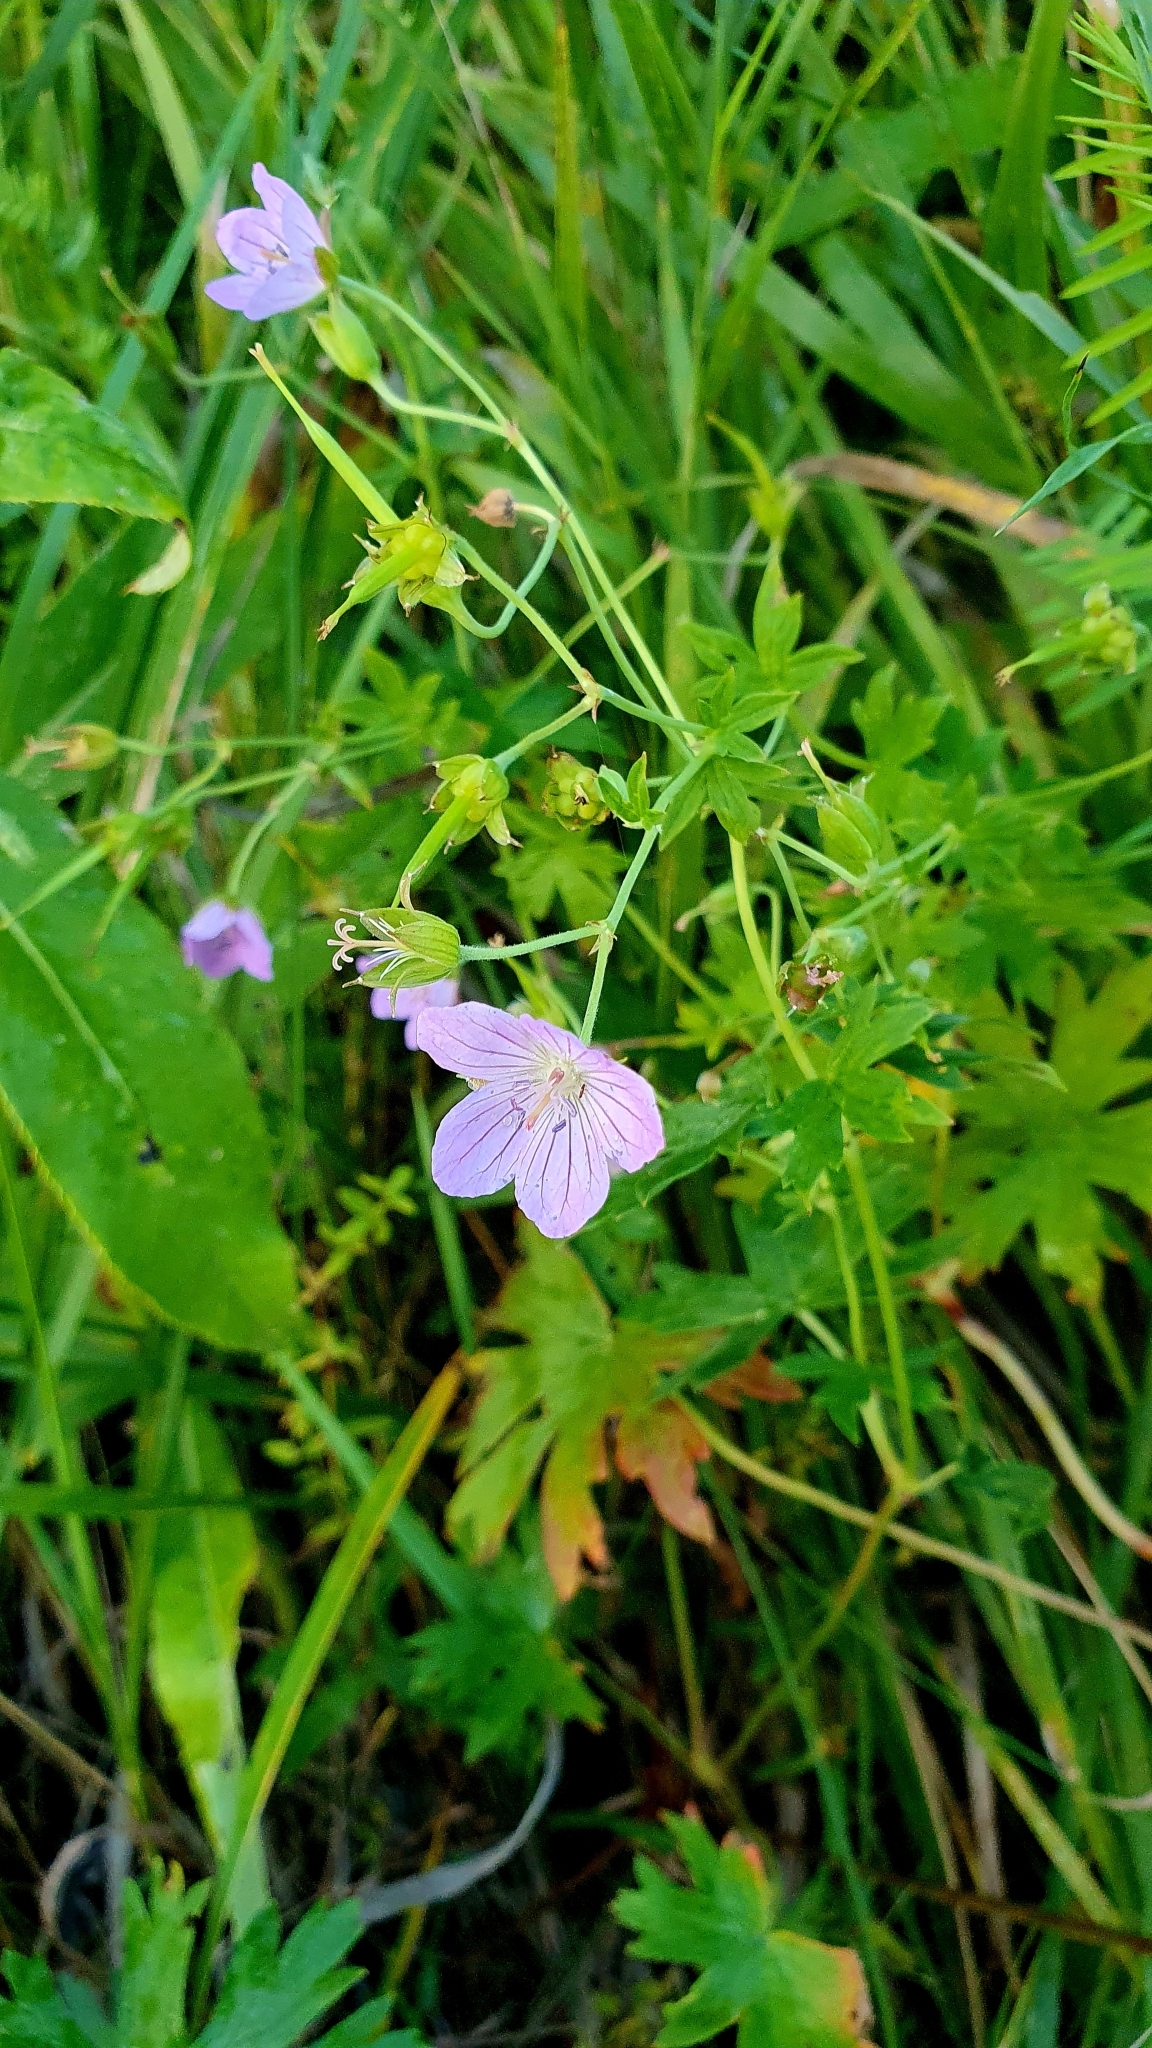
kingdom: Plantae
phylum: Tracheophyta
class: Magnoliopsida
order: Geraniales
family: Geraniaceae
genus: Geranium
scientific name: Geranium collinum
